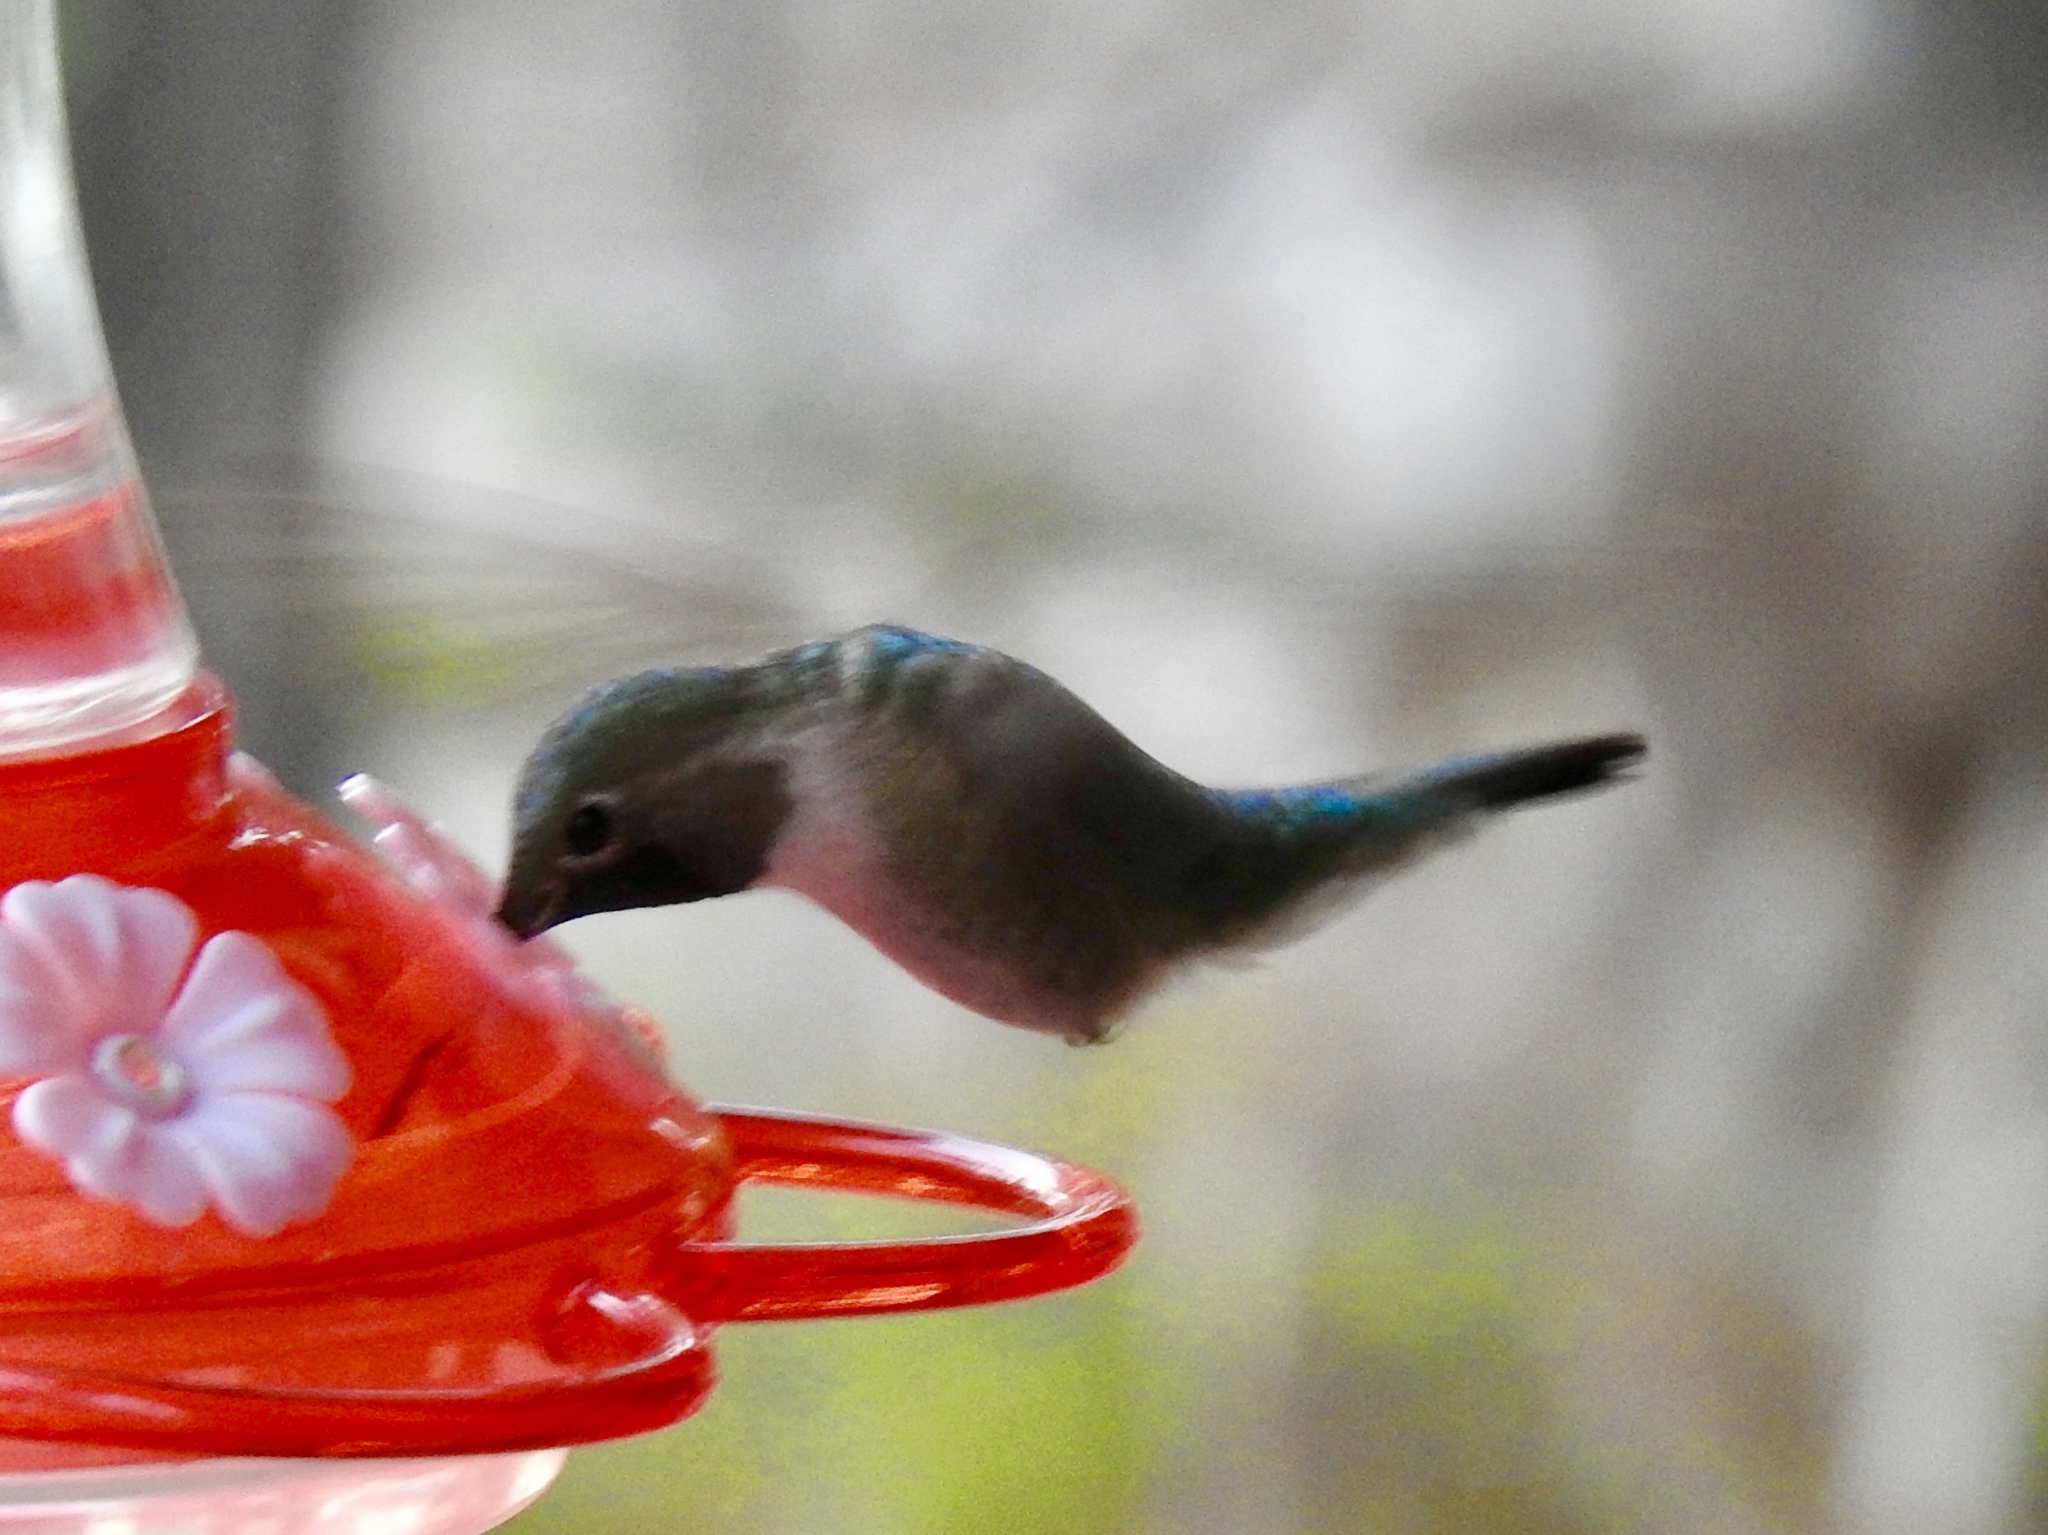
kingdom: Animalia
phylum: Chordata
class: Aves
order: Apodiformes
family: Trochilidae
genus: Selasphorus
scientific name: Selasphorus platycercus
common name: Broad-tailed hummingbird
